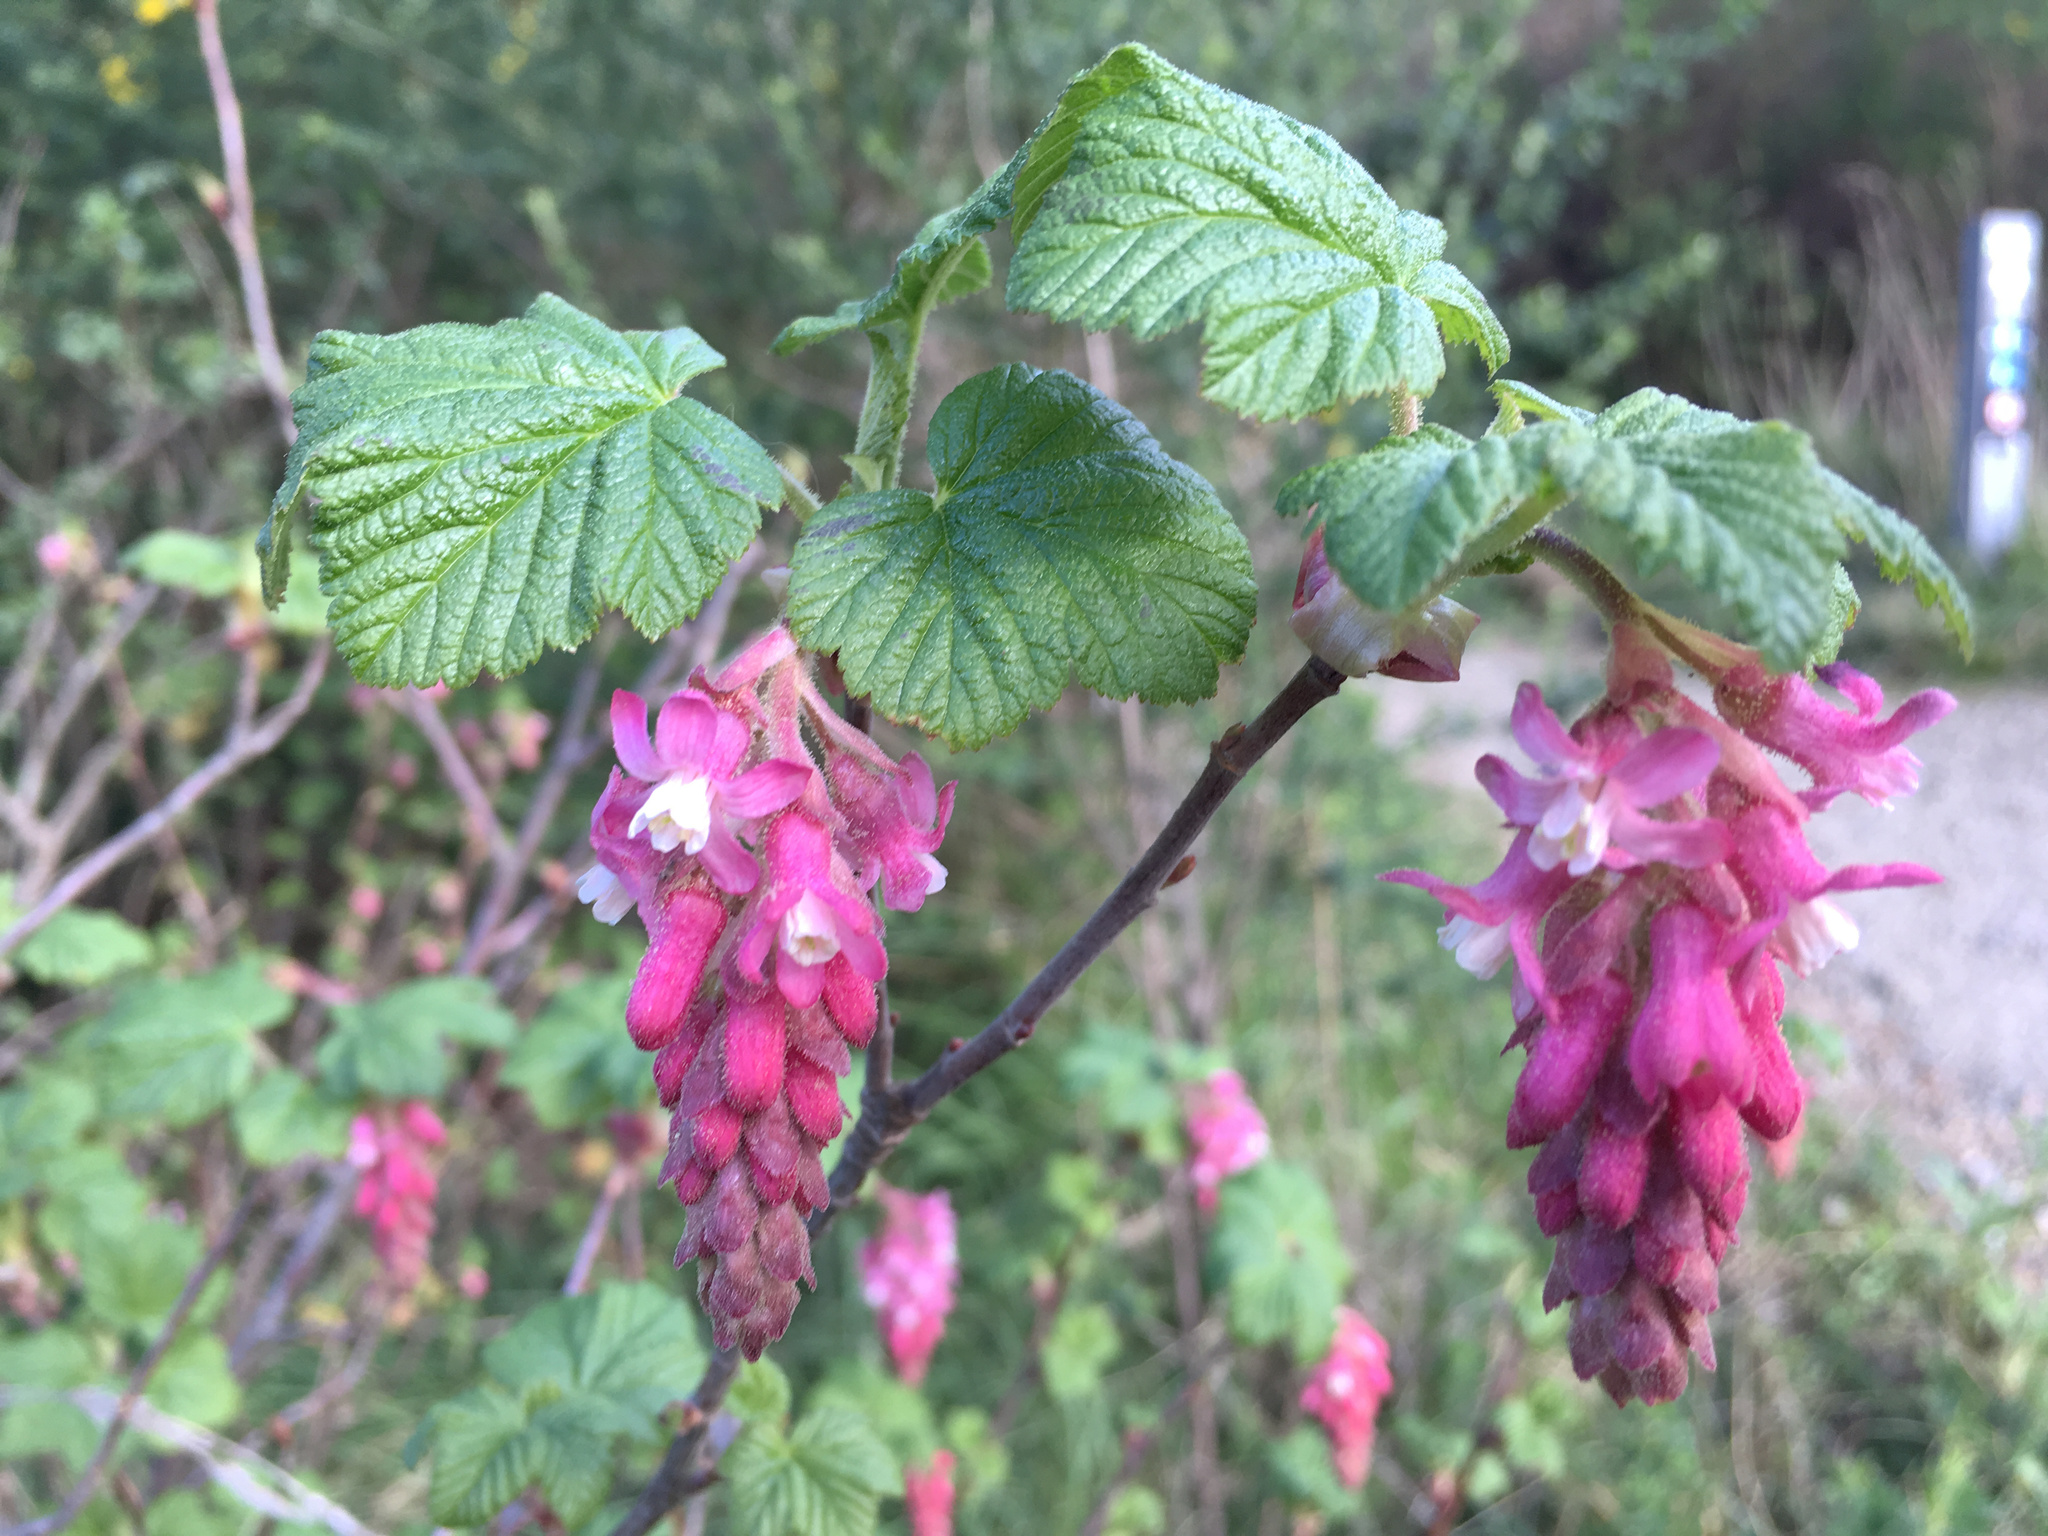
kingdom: Plantae
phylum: Tracheophyta
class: Magnoliopsida
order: Saxifragales
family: Grossulariaceae
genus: Ribes
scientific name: Ribes sanguineum
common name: Flowering currant
